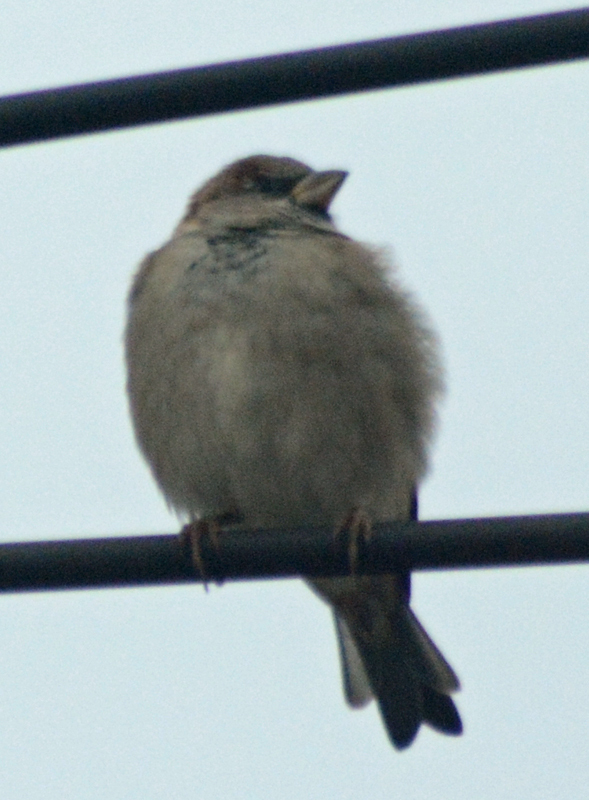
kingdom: Animalia
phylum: Chordata
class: Aves
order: Passeriformes
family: Passeridae
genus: Passer
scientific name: Passer domesticus
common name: House sparrow
